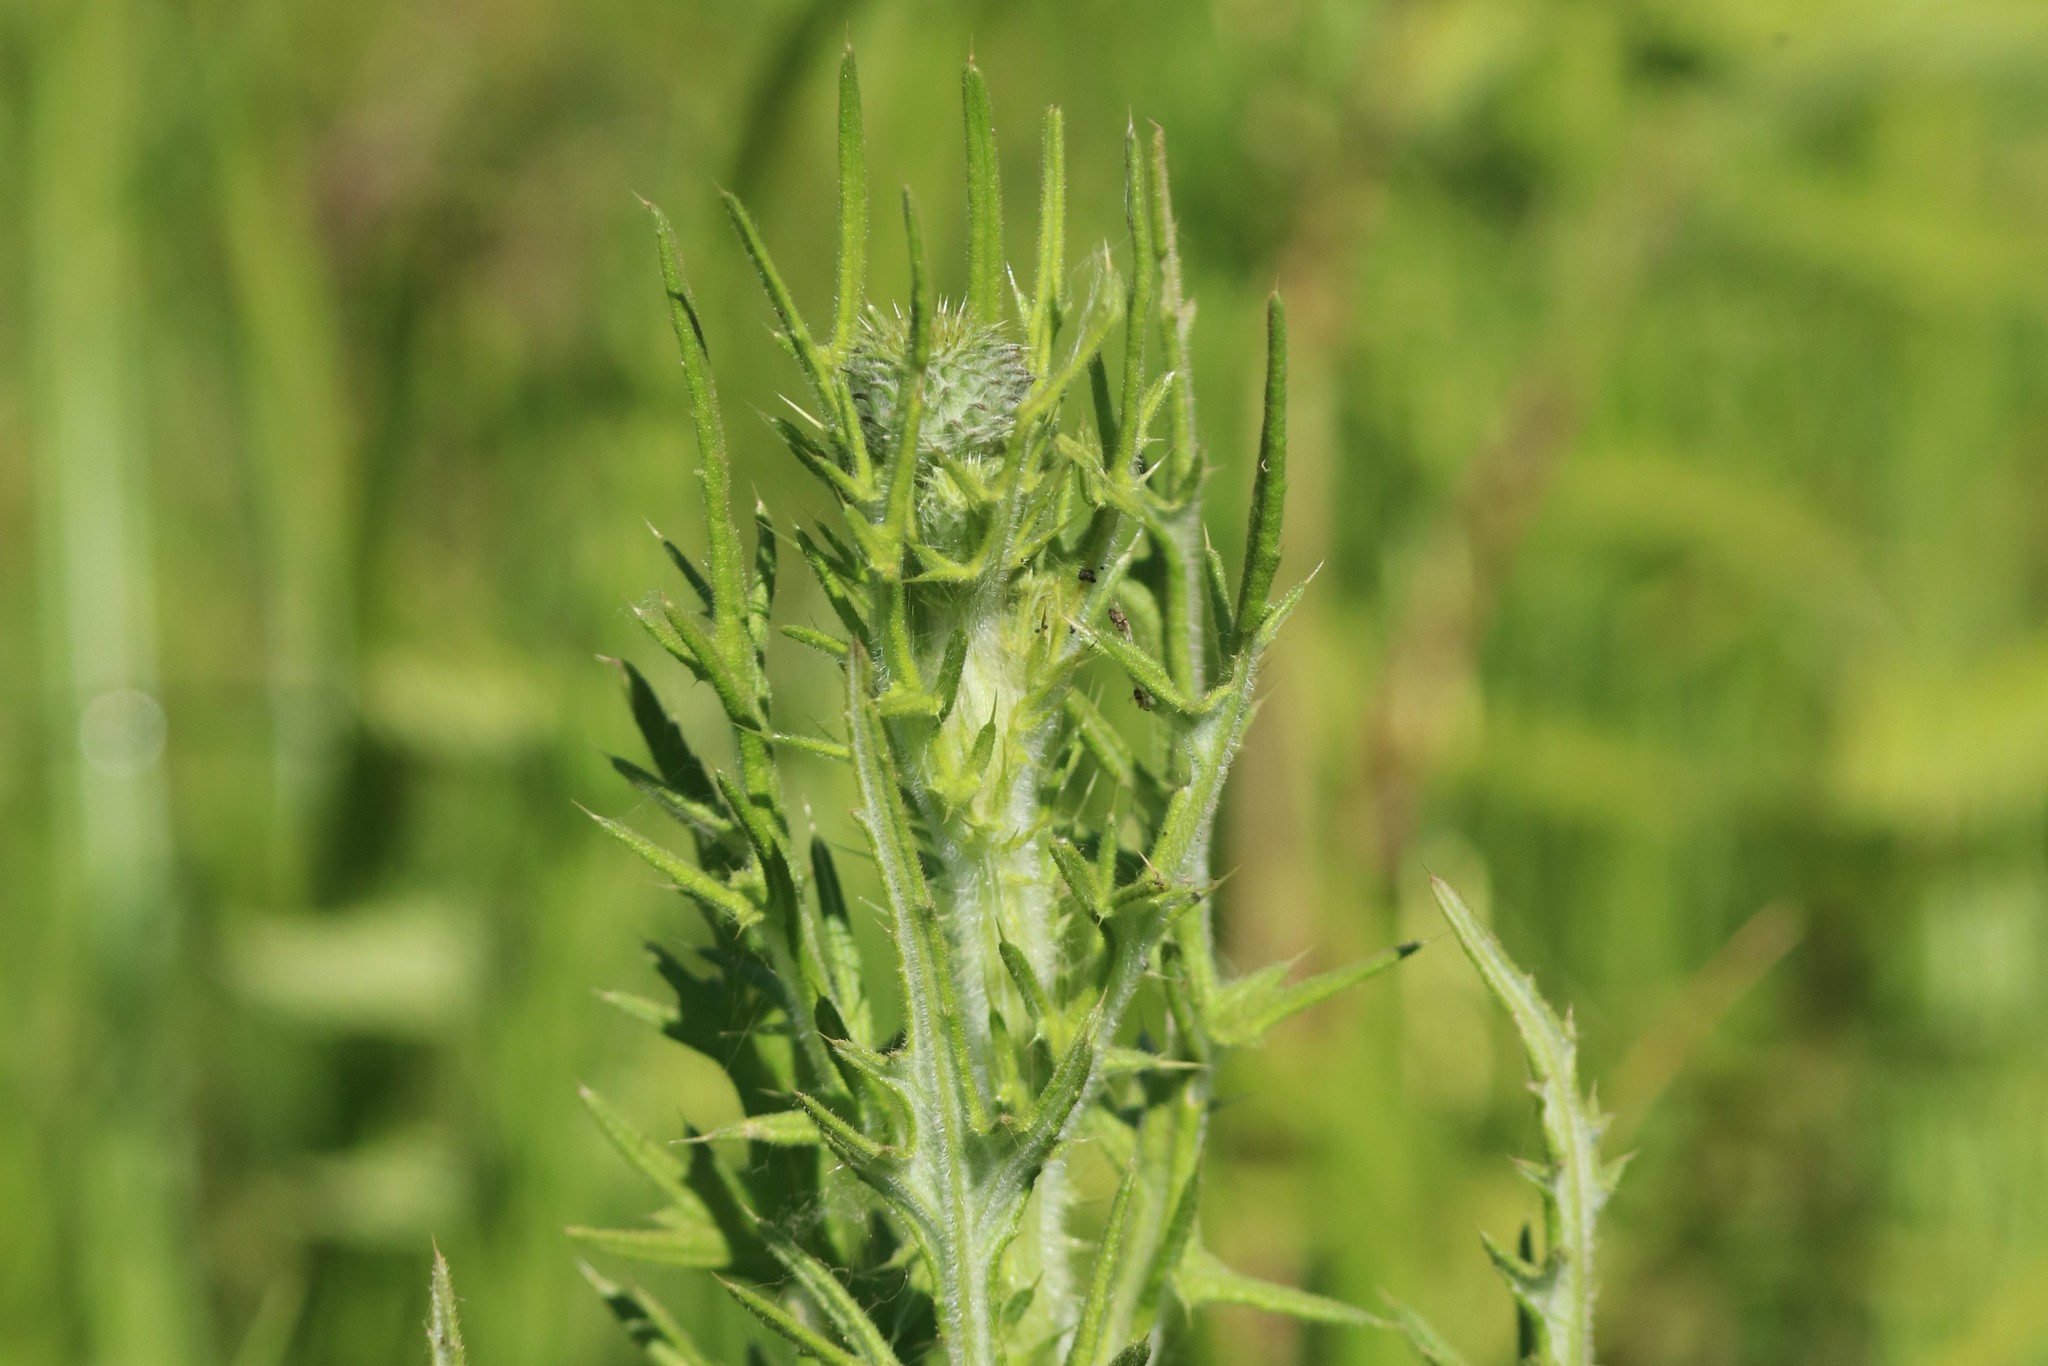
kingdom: Plantae
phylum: Tracheophyta
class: Magnoliopsida
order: Asterales
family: Asteraceae
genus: Cirsium
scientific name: Cirsium vulgare
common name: Bull thistle
